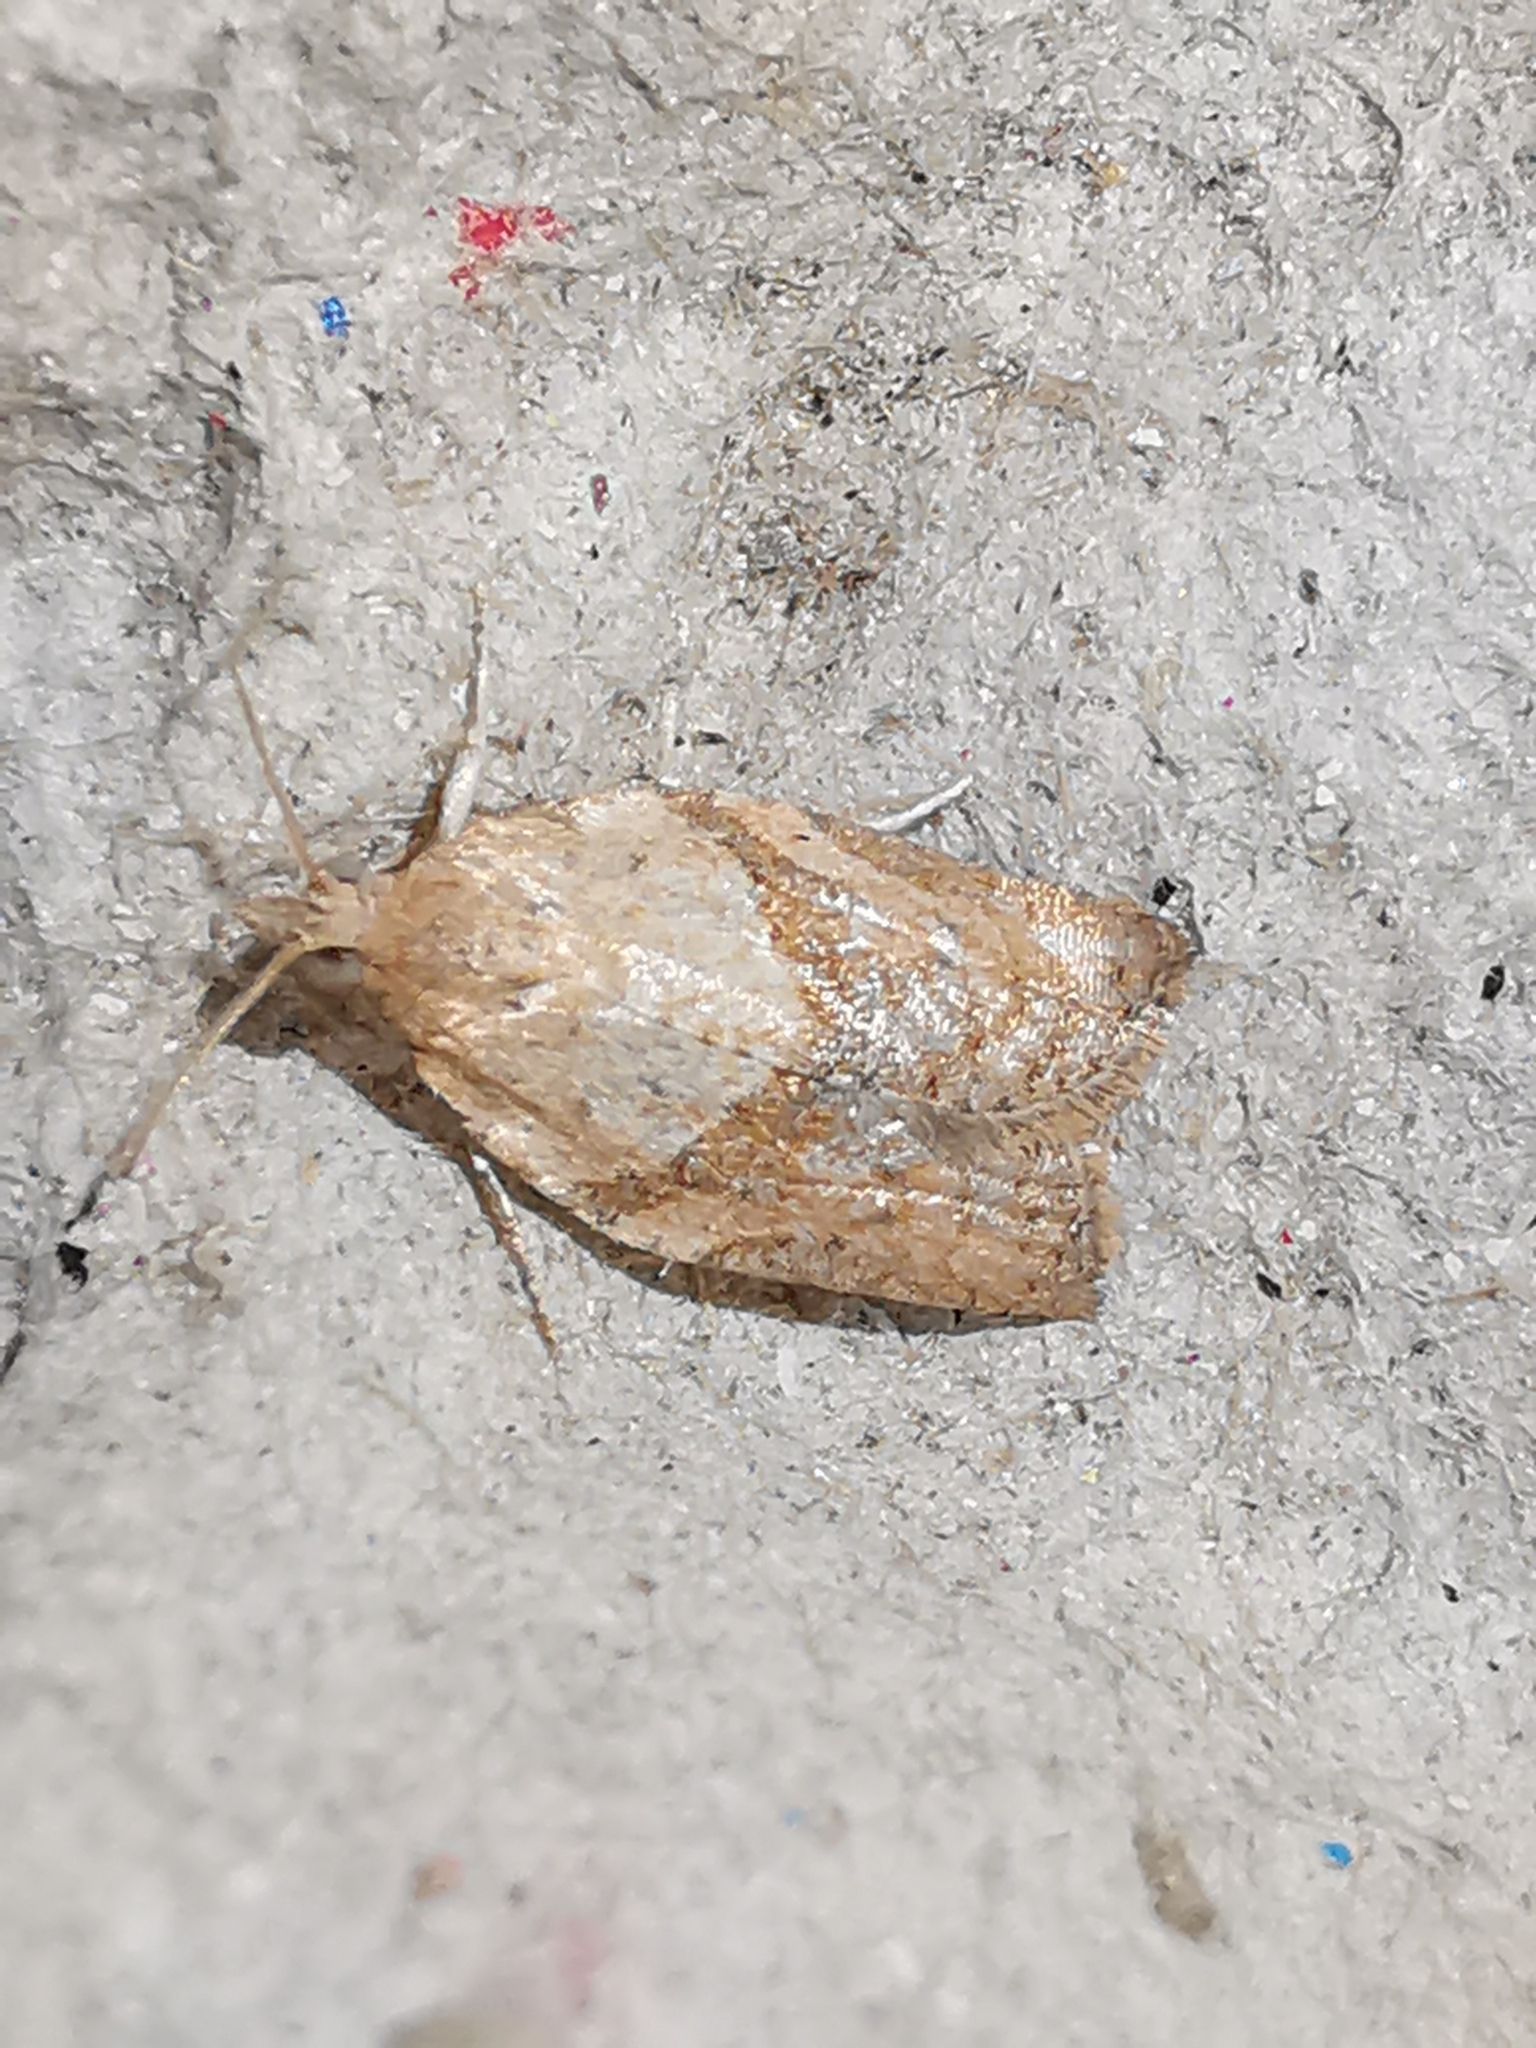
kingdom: Animalia
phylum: Arthropoda
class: Insecta
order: Lepidoptera
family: Tortricidae
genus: Epiphyas
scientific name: Epiphyas postvittana
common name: Light brown apple moth
